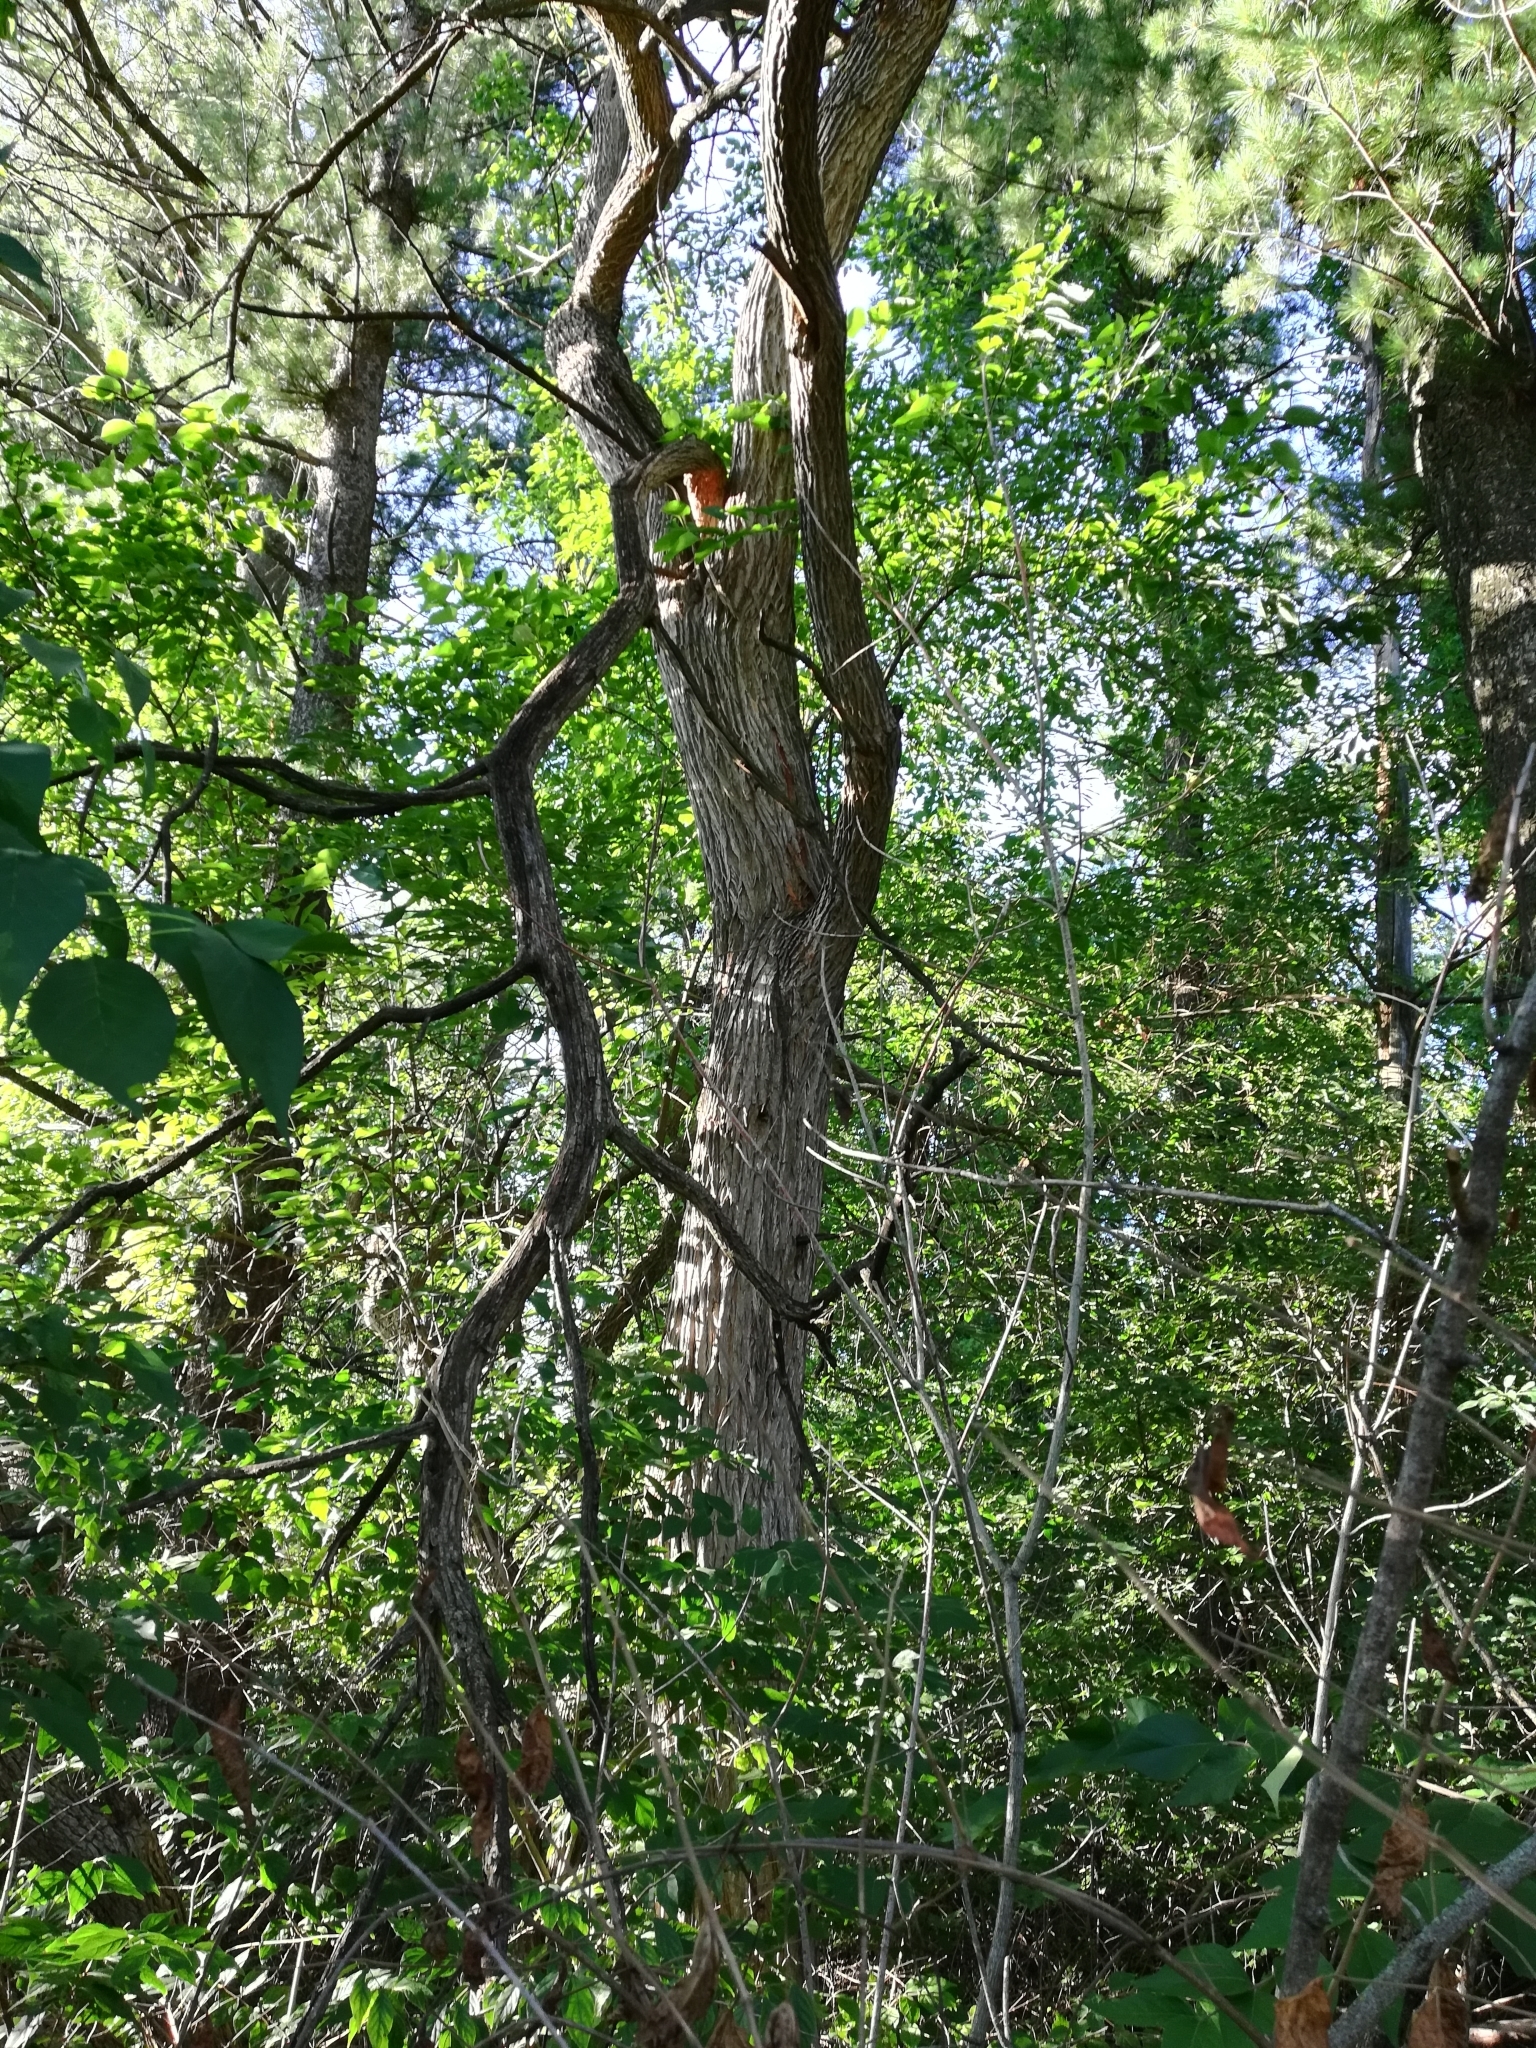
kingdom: Plantae
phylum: Tracheophyta
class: Magnoliopsida
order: Rosales
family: Moraceae
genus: Maclura
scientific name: Maclura pomifera
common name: Osage-orange
